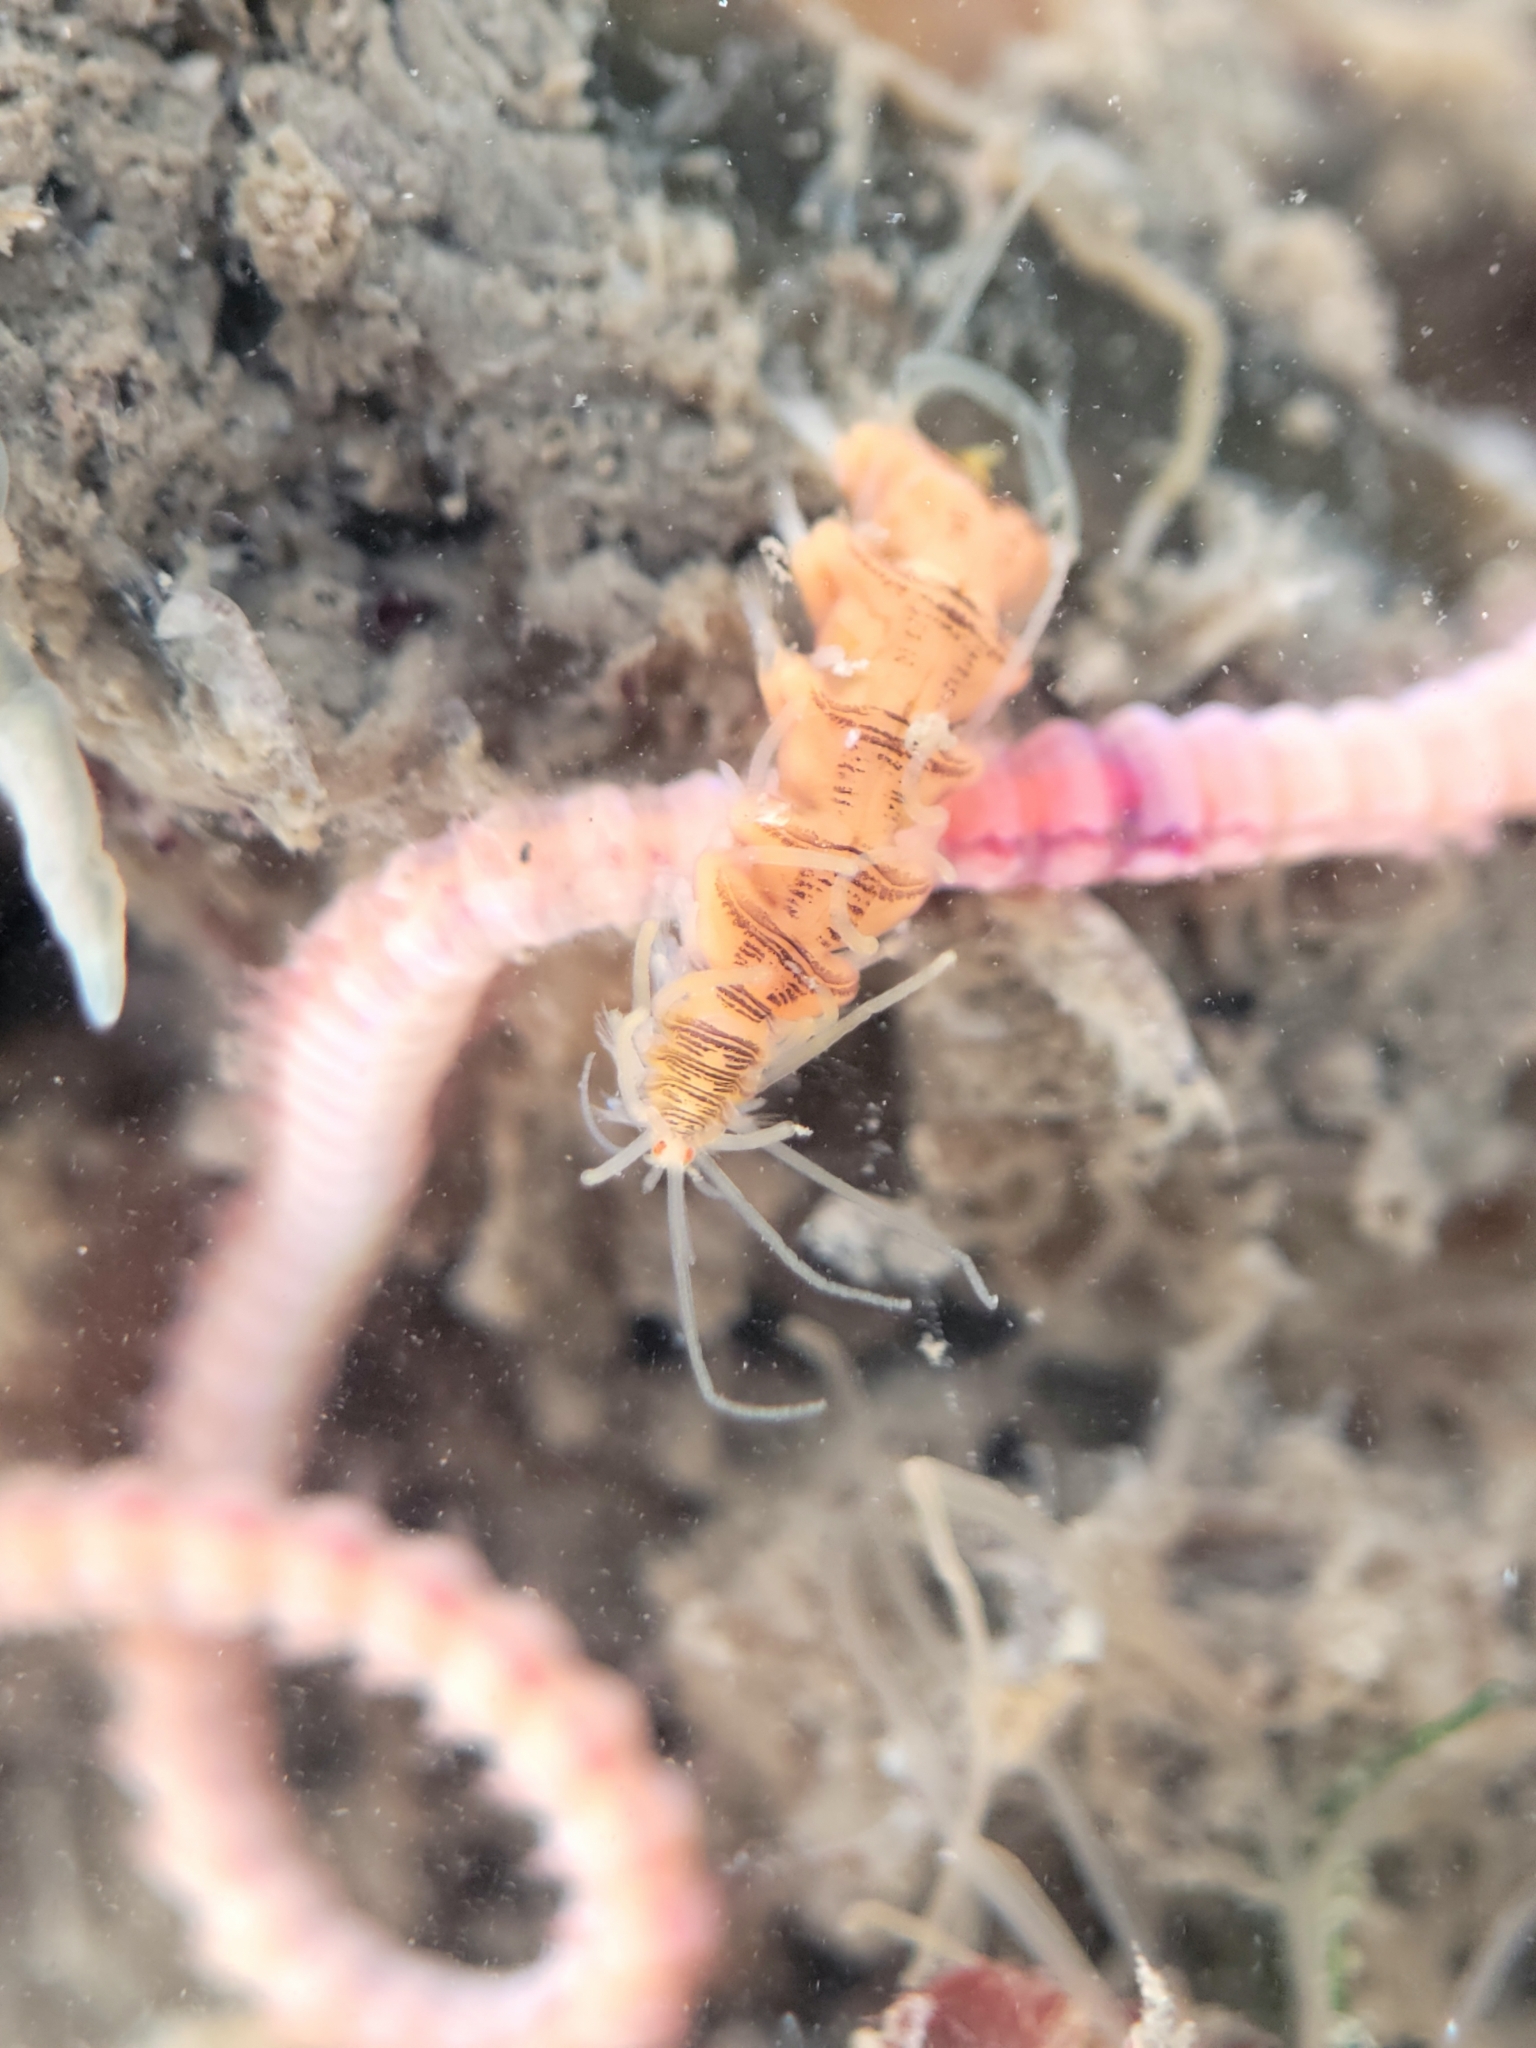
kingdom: Animalia
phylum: Annelida
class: Polychaeta
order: Phyllodocida
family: Syllidae
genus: Amblyosyllis
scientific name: Amblyosyllis hectori
